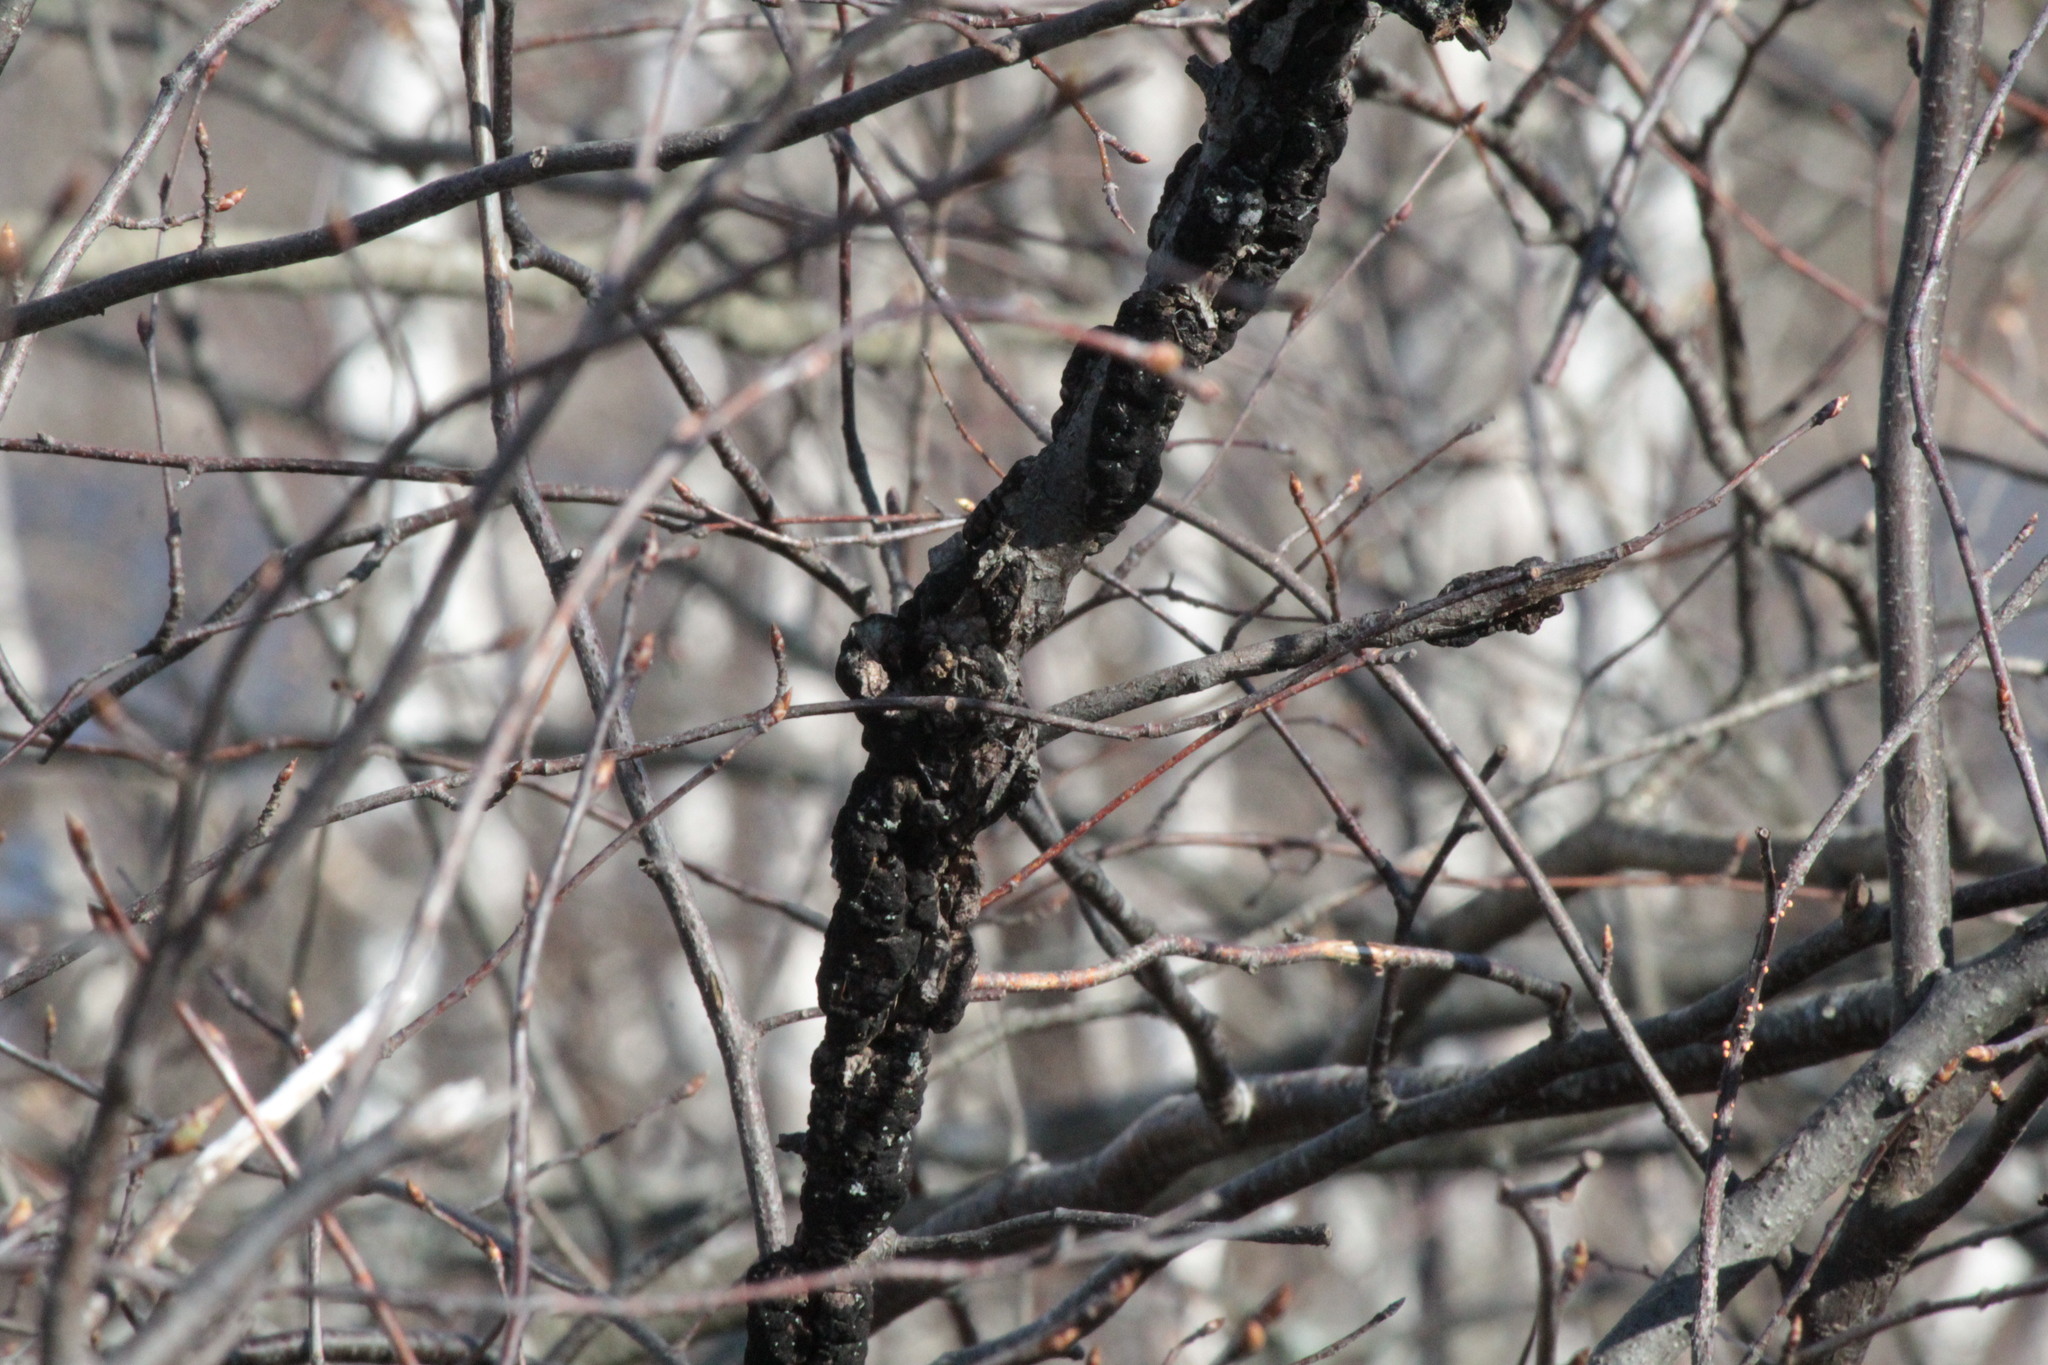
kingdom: Fungi
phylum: Ascomycota
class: Dothideomycetes
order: Venturiales
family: Venturiaceae
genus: Apiosporina
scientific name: Apiosporina morbosa
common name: Black knot
